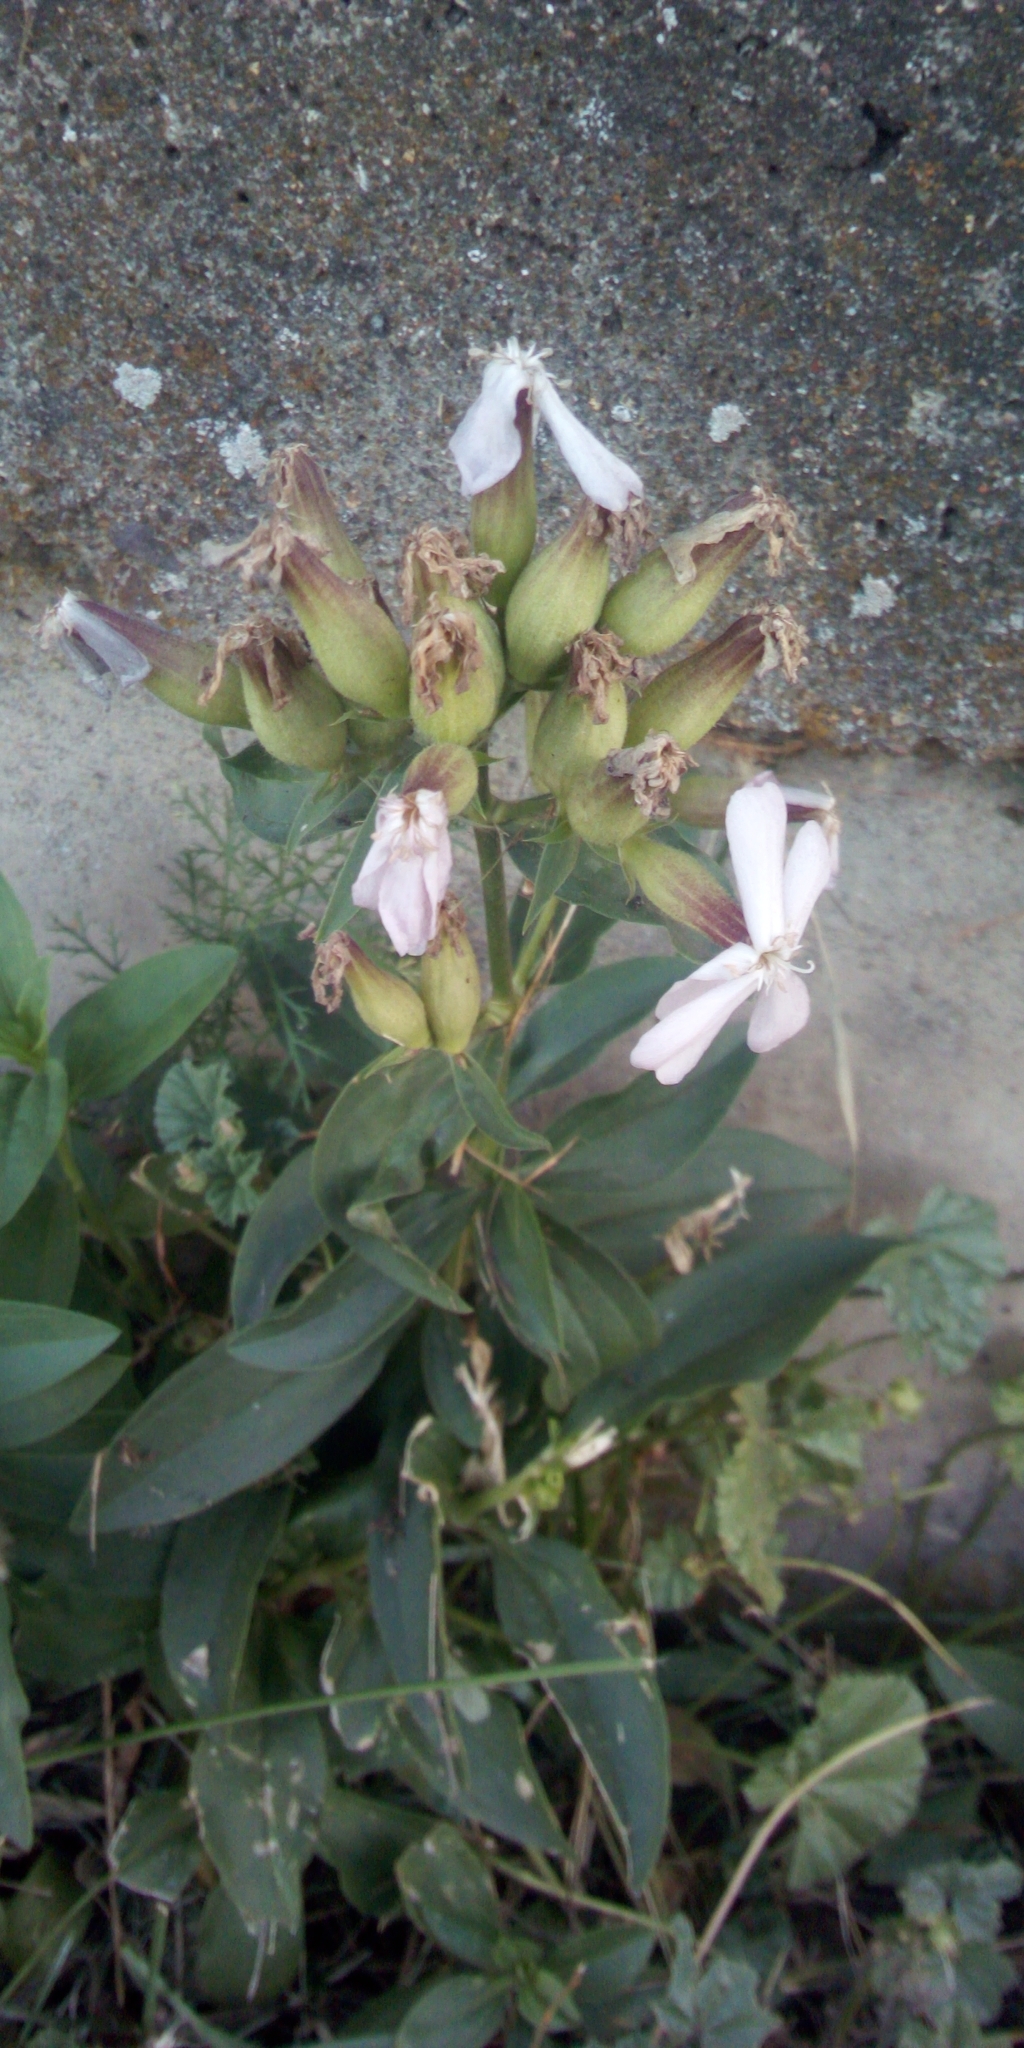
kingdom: Plantae
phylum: Tracheophyta
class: Magnoliopsida
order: Caryophyllales
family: Caryophyllaceae
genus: Saponaria
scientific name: Saponaria officinalis
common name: Soapwort
